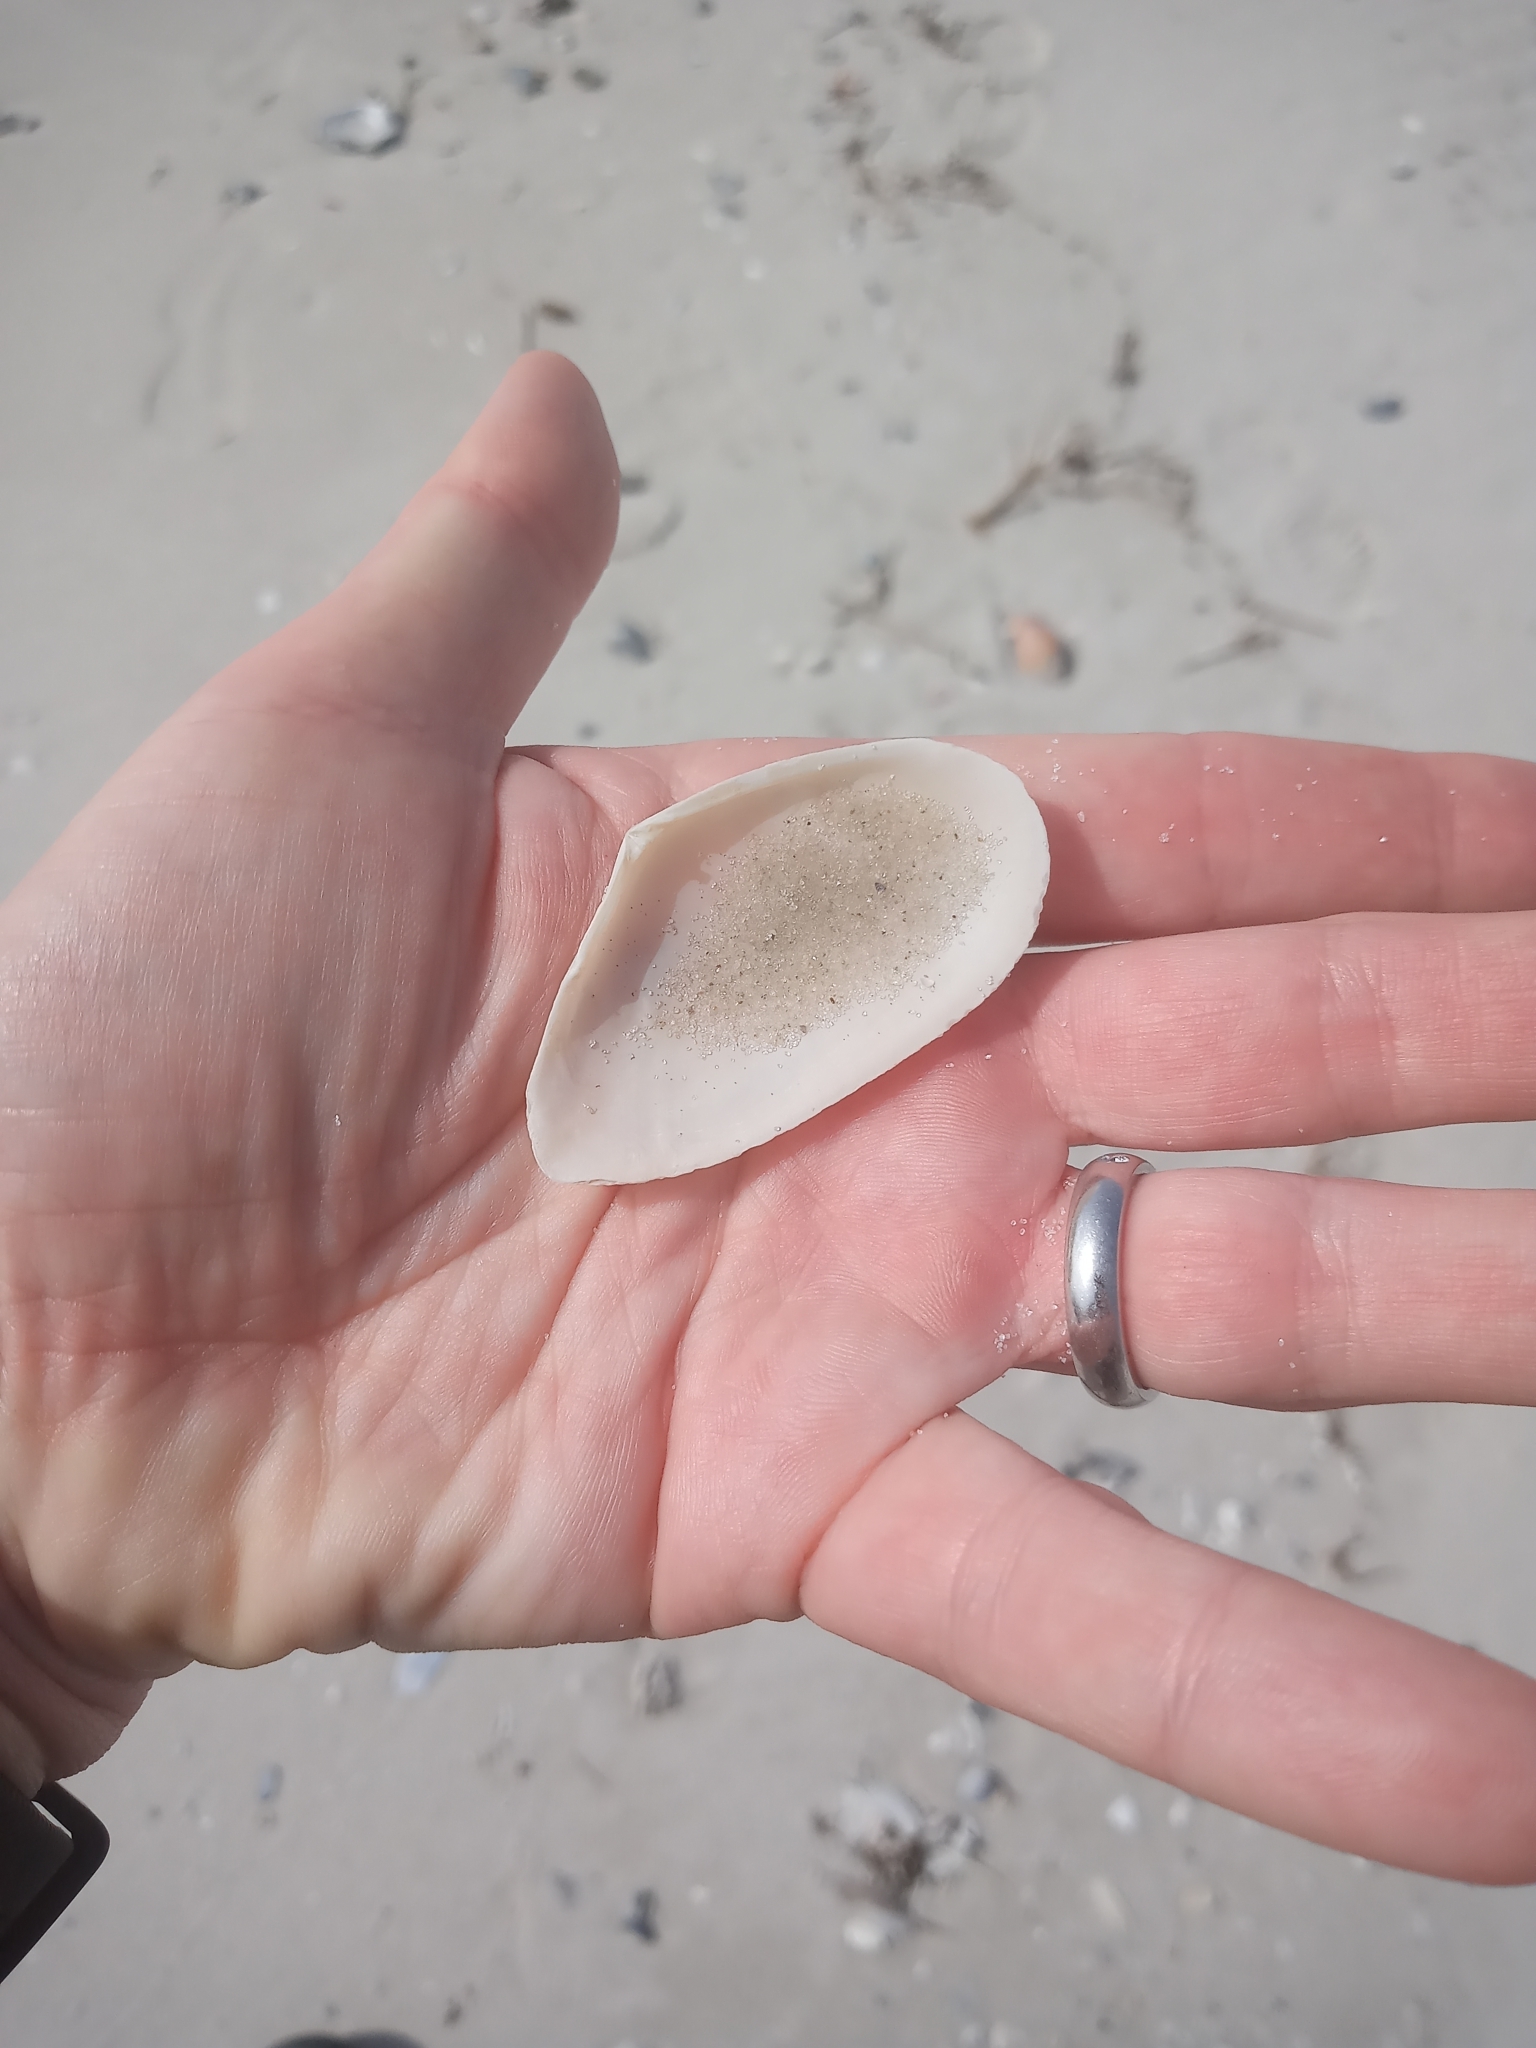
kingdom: Animalia
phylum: Mollusca
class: Bivalvia
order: Cardiida
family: Tellinidae
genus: Eurytellina
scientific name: Eurytellina alternata
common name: Alternate tellin
